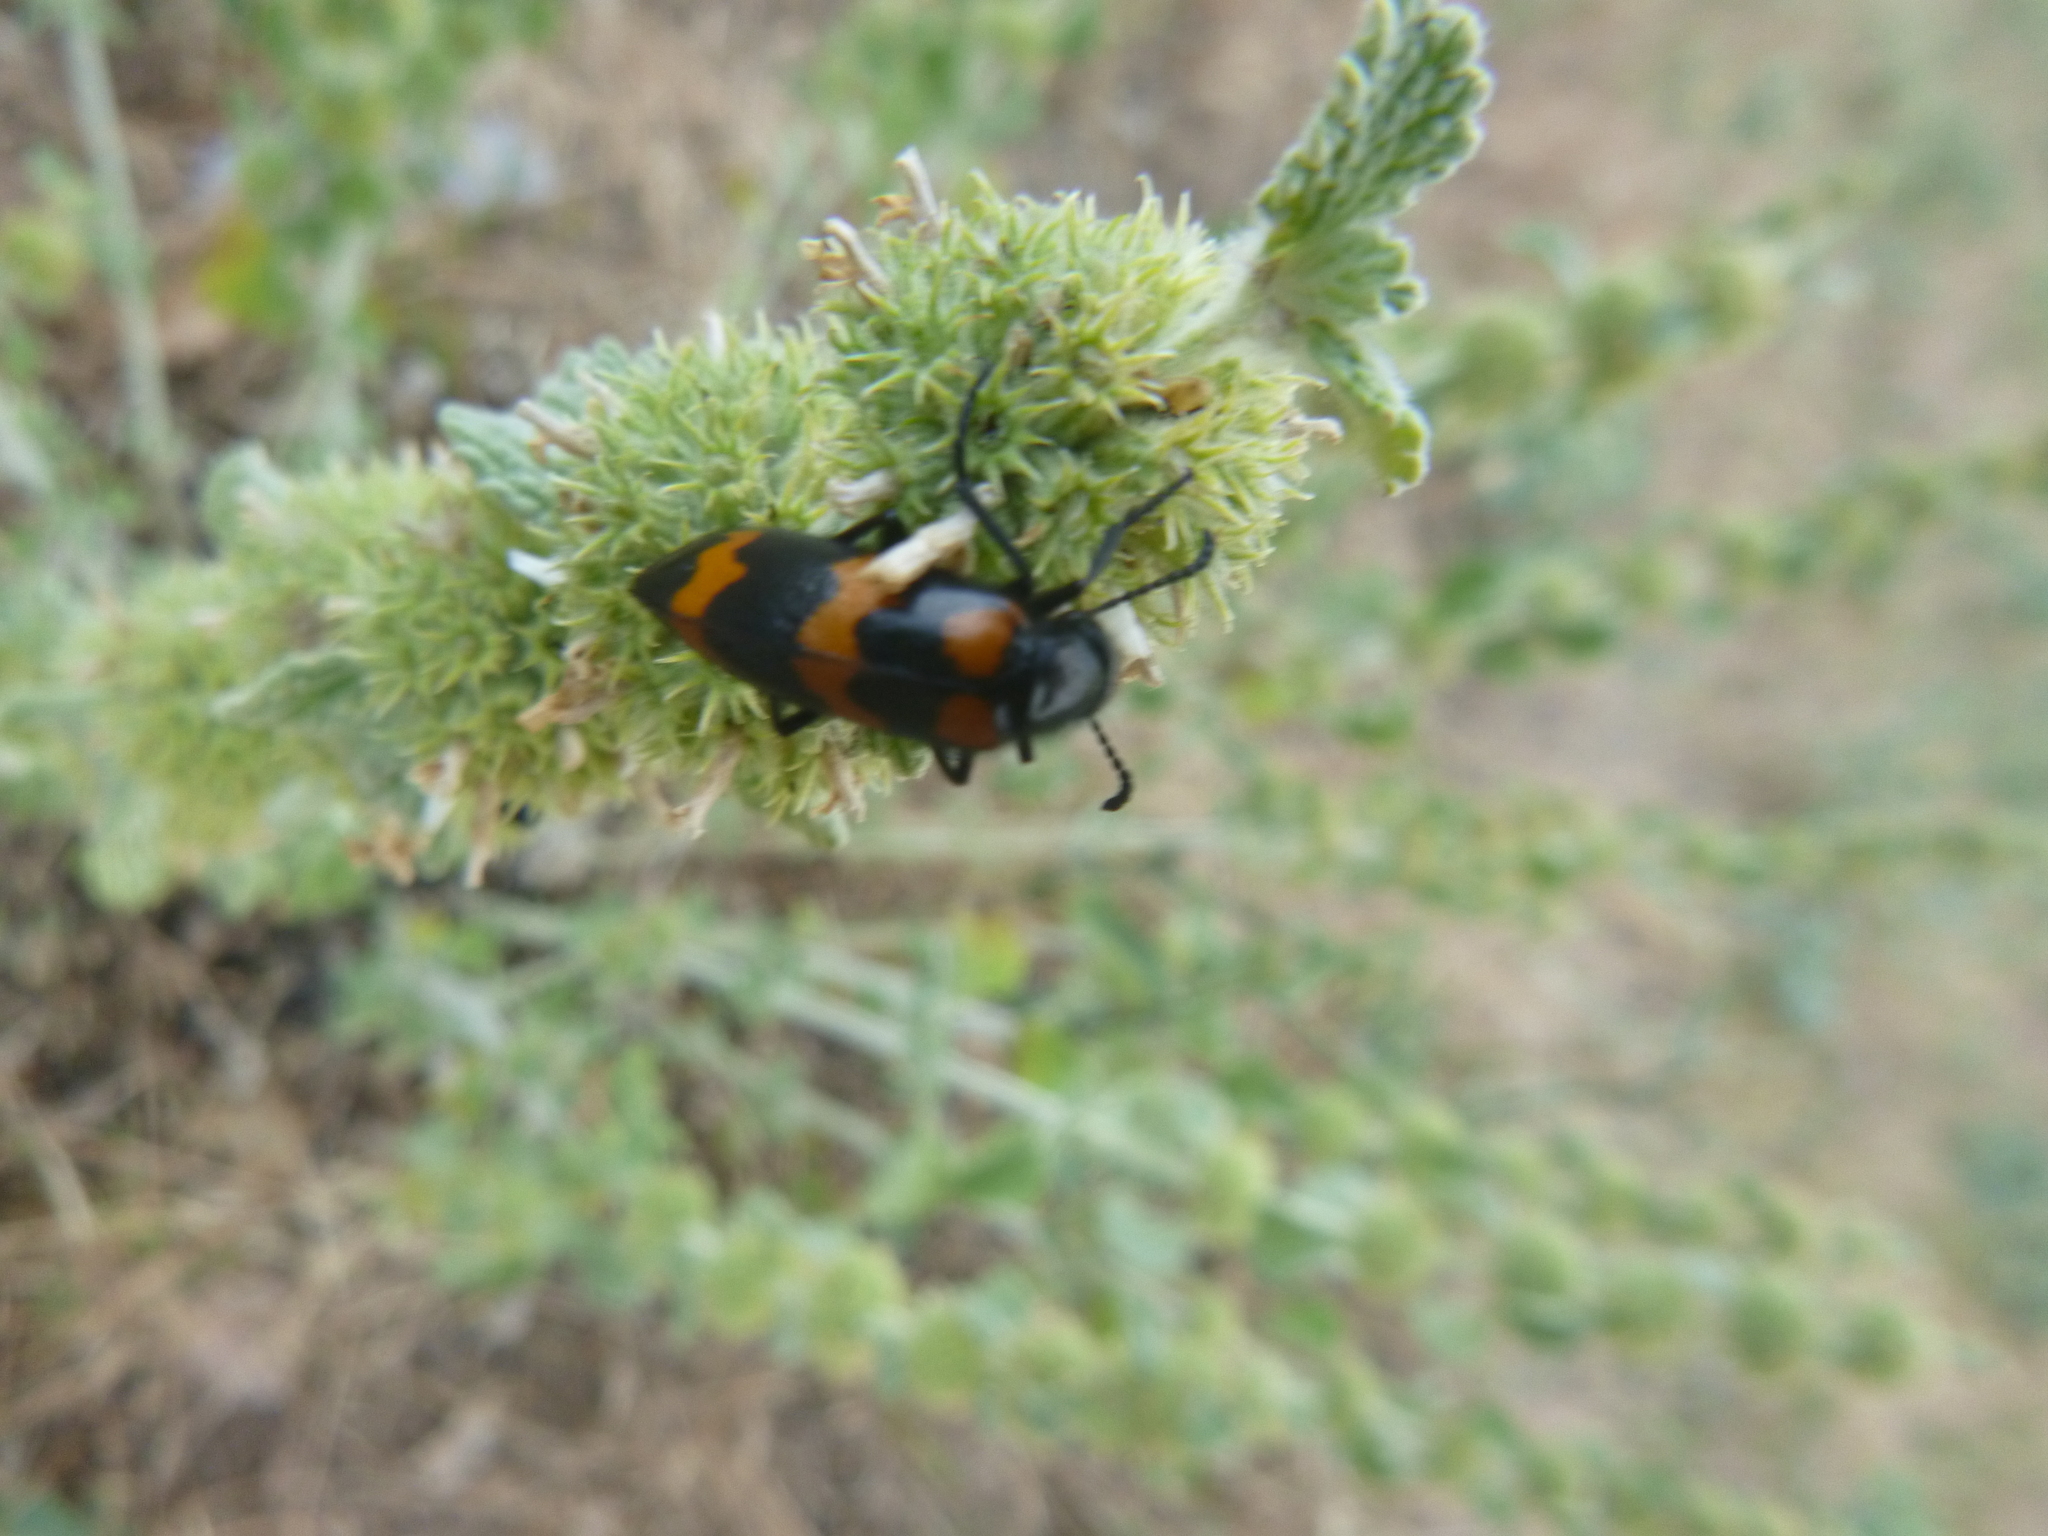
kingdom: Animalia
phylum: Arthropoda
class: Insecta
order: Coleoptera
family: Meloidae
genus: Mylabris
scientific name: Mylabris variabilis
